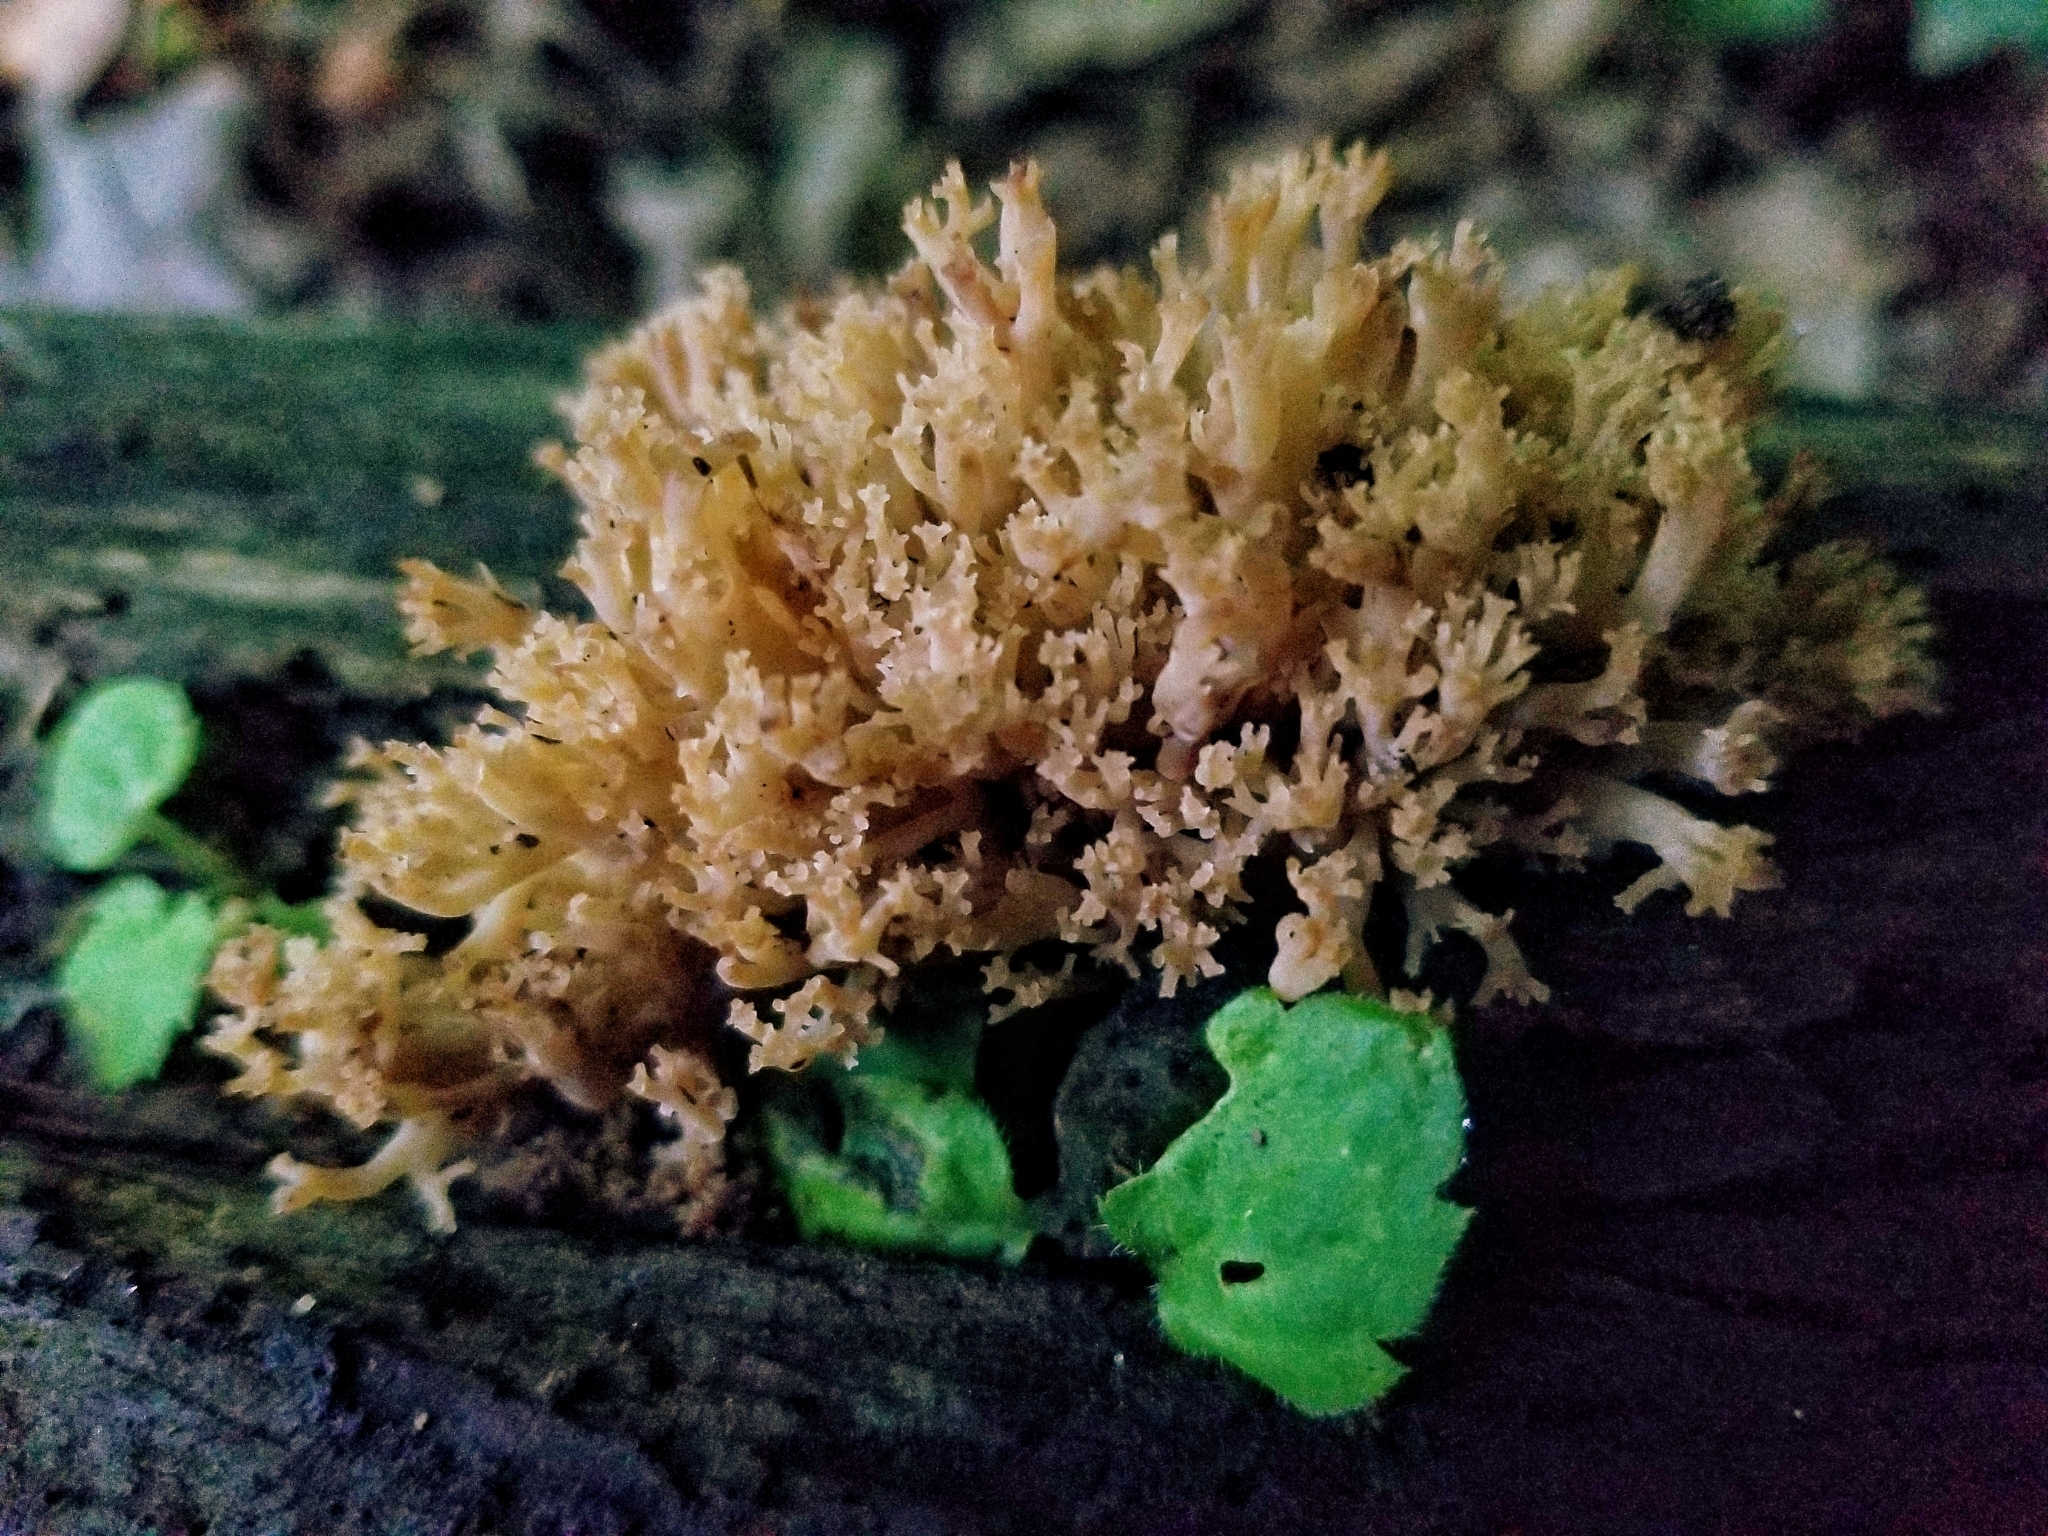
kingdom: Fungi
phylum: Basidiomycota
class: Agaricomycetes
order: Russulales
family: Auriscalpiaceae
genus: Artomyces
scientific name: Artomyces pyxidatus
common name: Crown-tipped coral fungus
